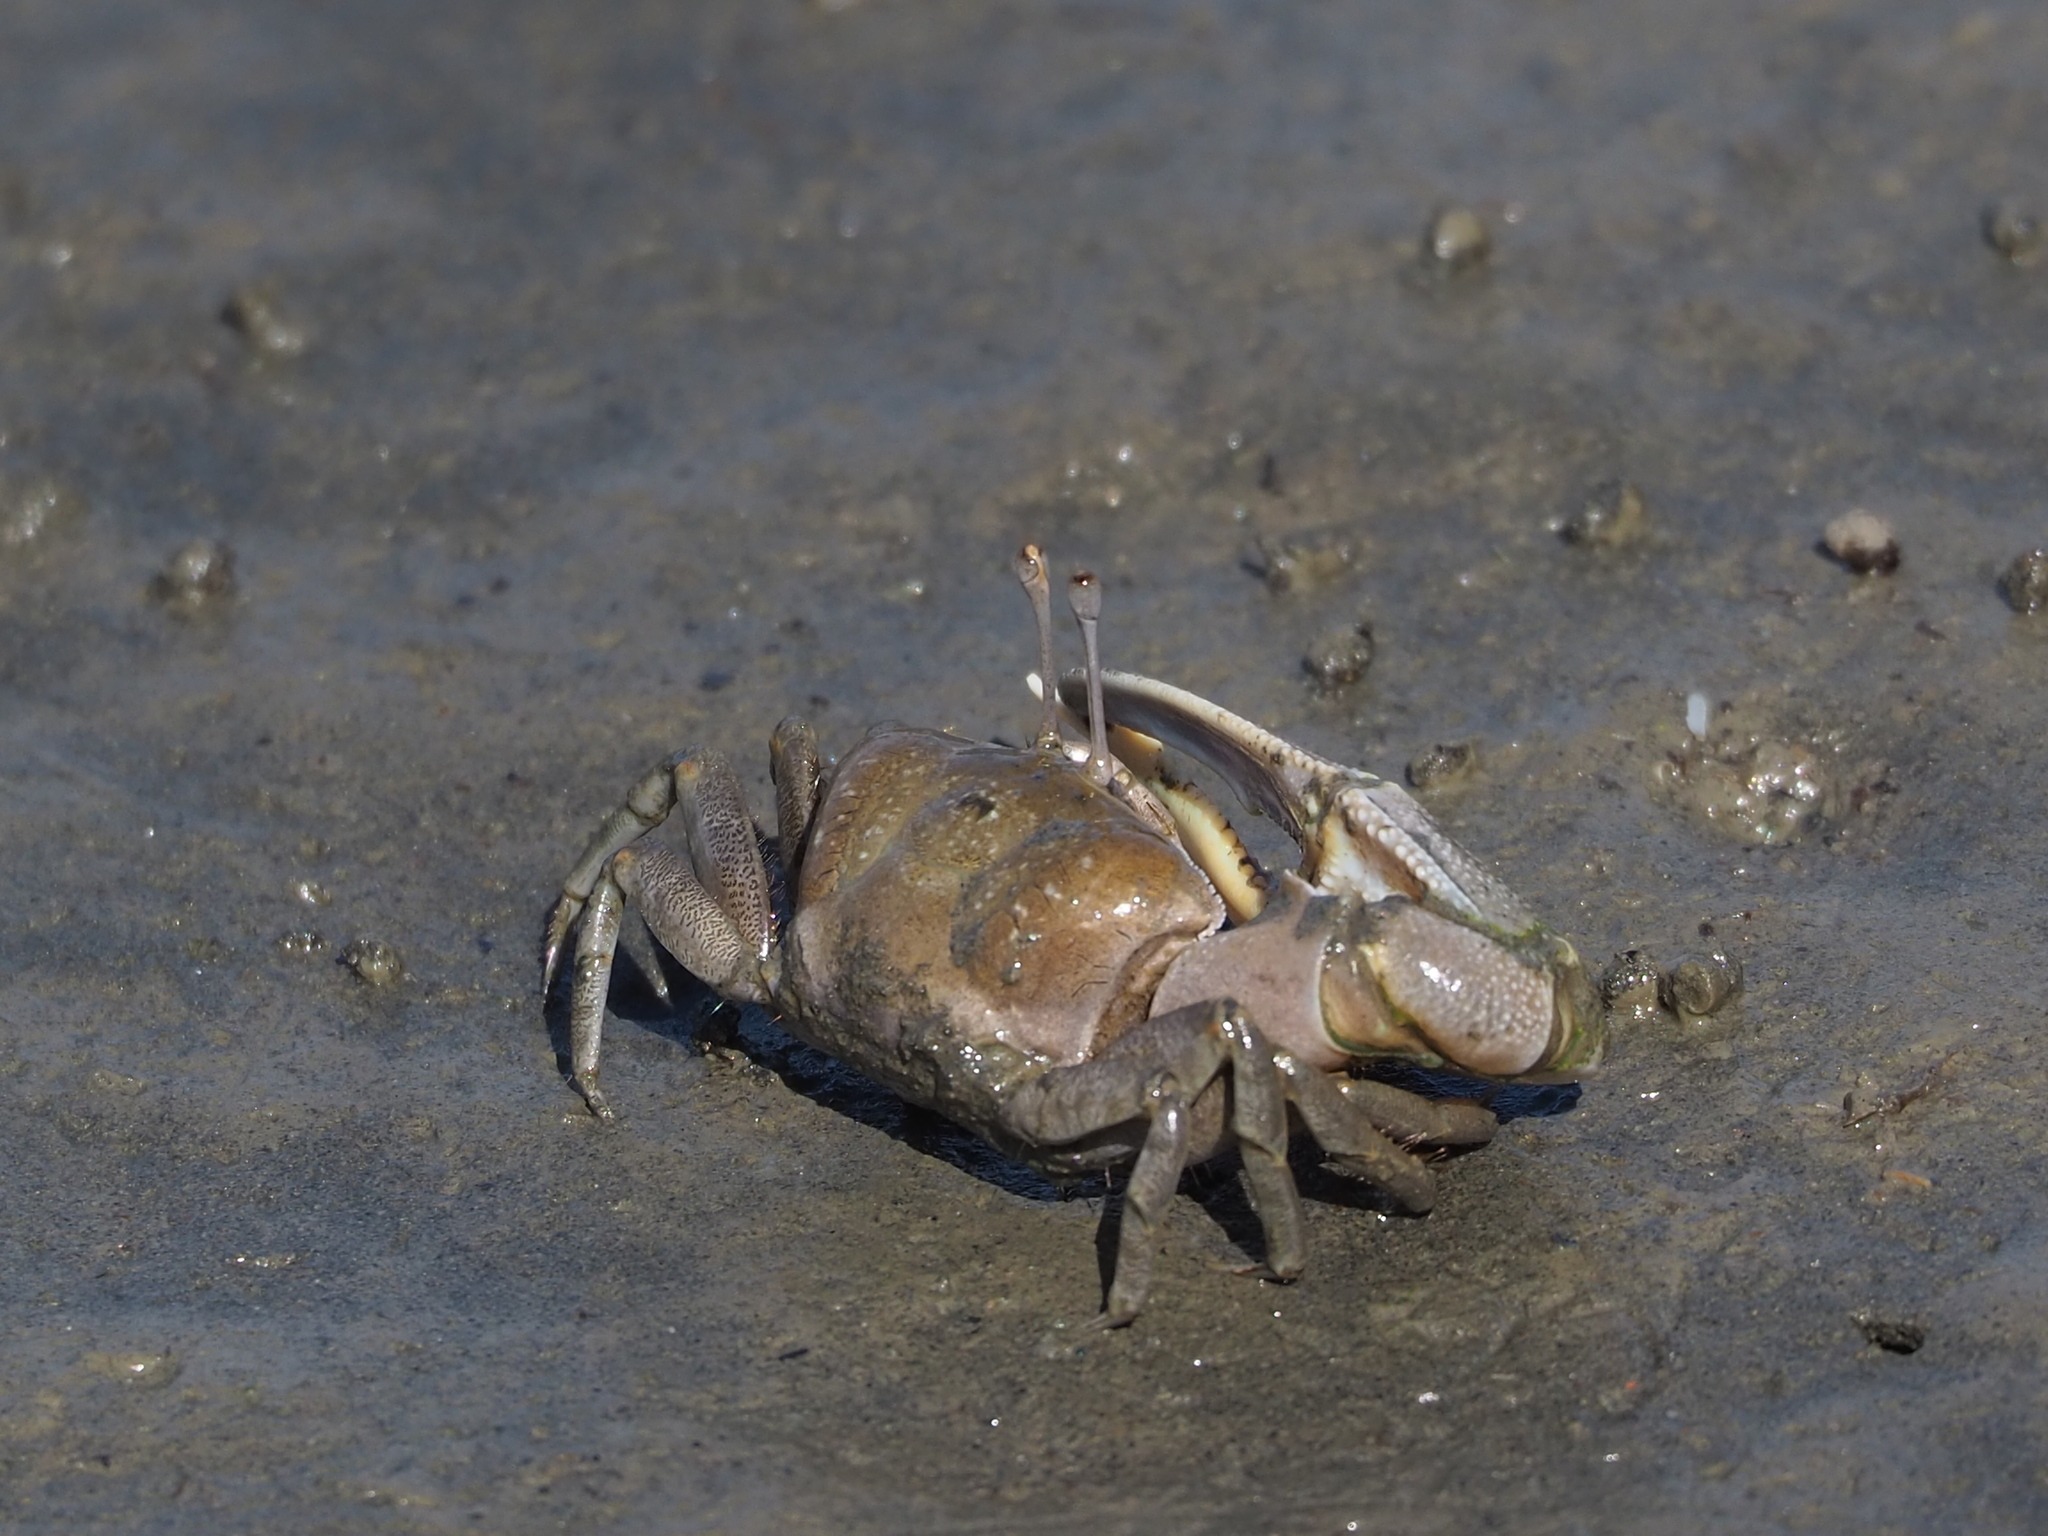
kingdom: Animalia
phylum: Arthropoda
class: Malacostraca
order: Decapoda
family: Ocypodidae
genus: Gelasimus
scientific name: Gelasimus borealis
